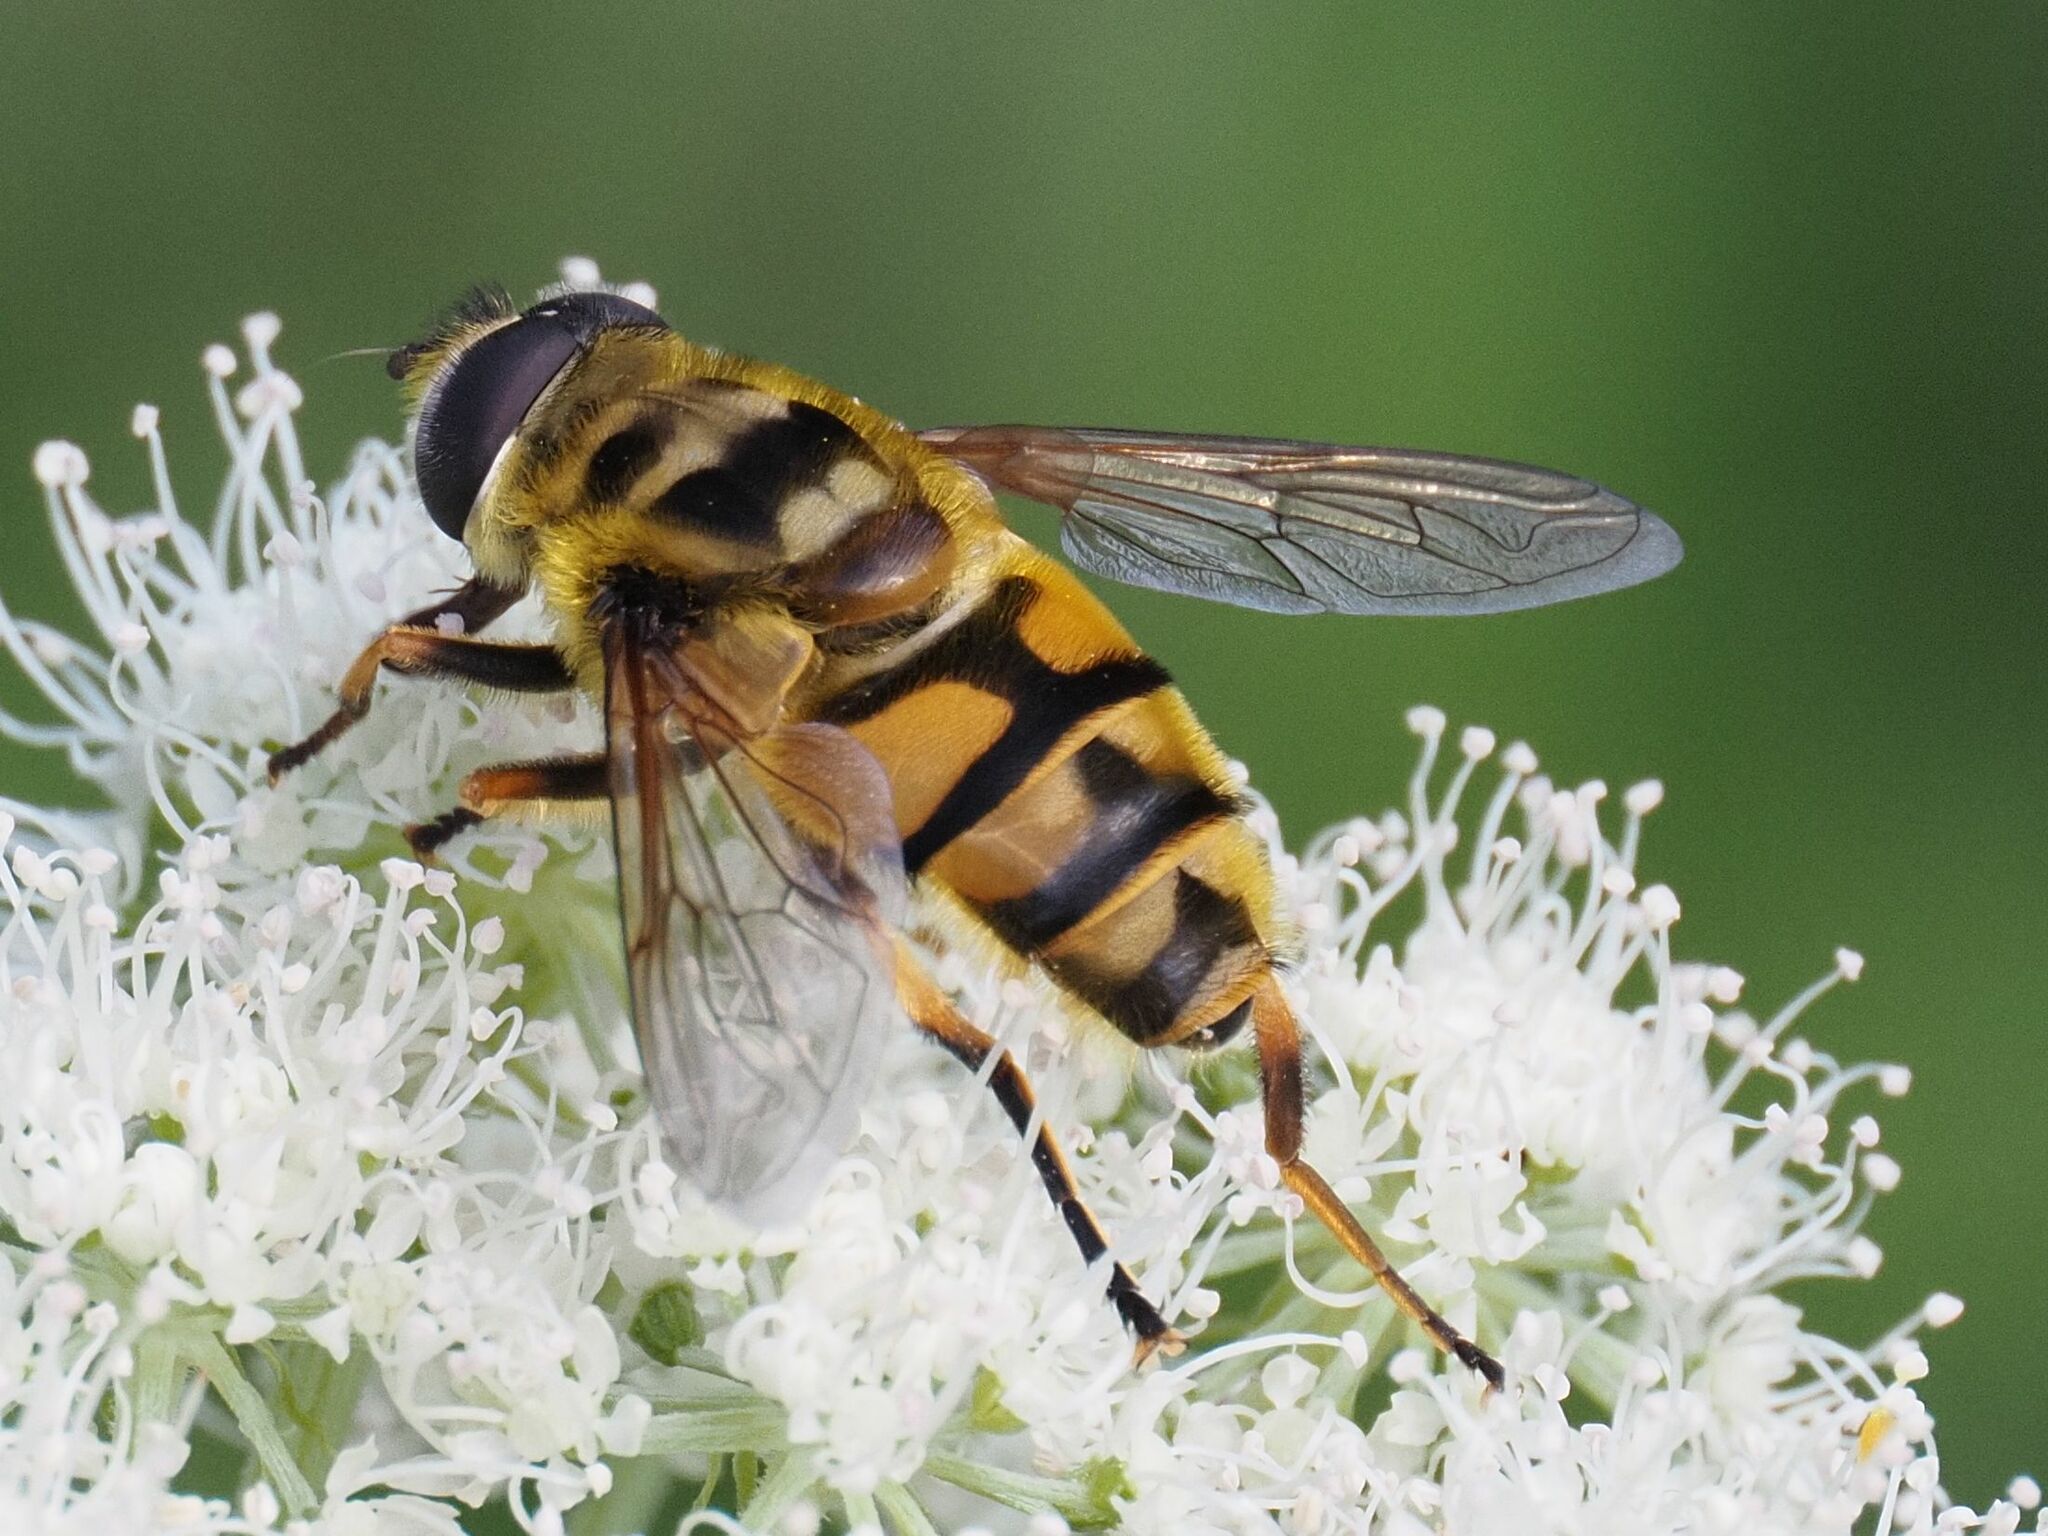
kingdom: Animalia
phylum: Arthropoda
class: Insecta
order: Diptera
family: Syrphidae
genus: Myathropa
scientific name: Myathropa florea
